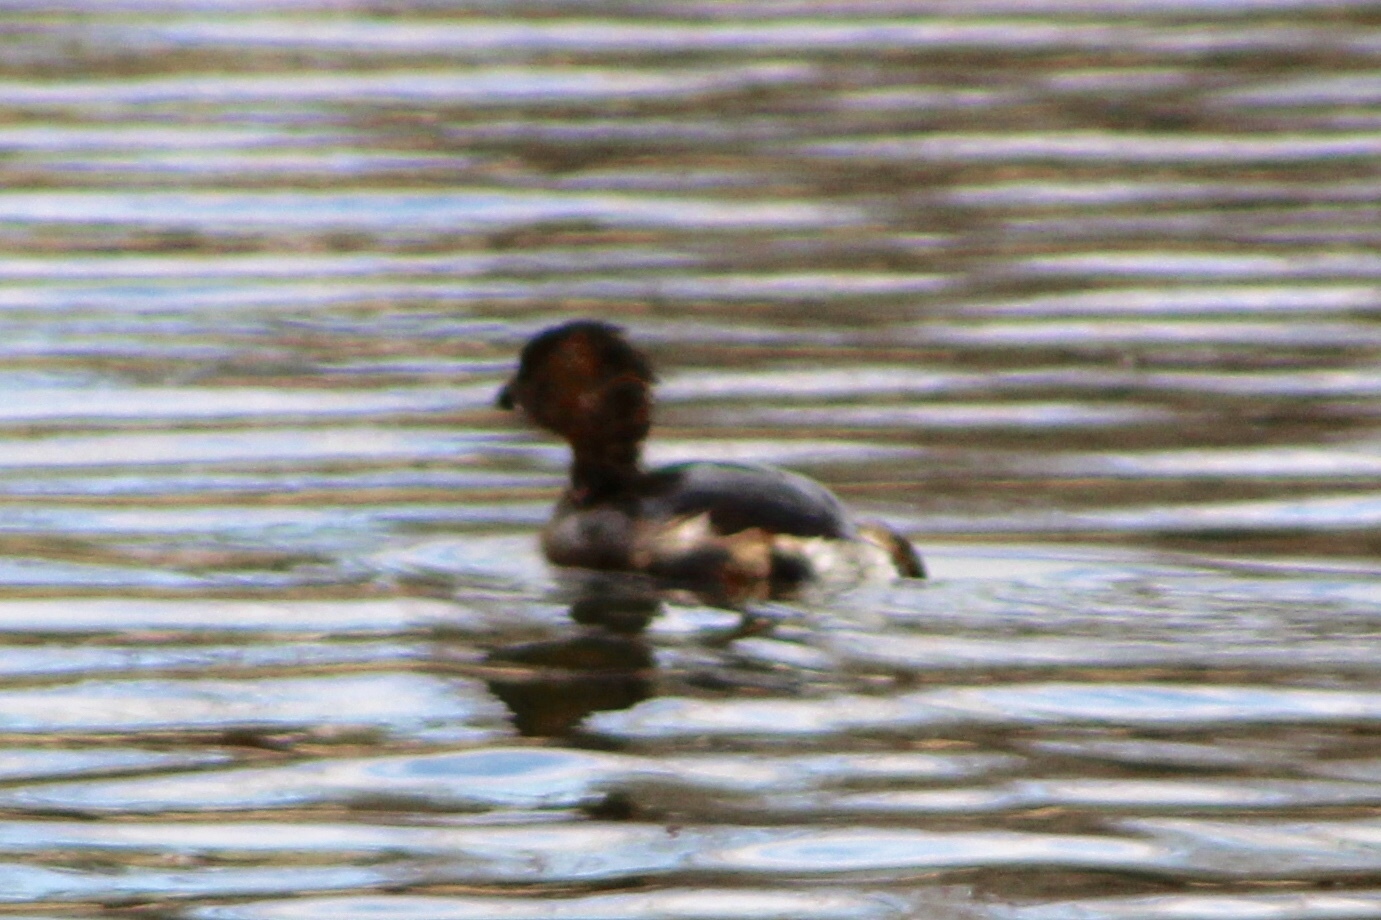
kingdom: Animalia
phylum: Chordata
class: Aves
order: Podicipediformes
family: Podicipedidae
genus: Podilymbus
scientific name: Podilymbus podiceps
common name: Pied-billed grebe
